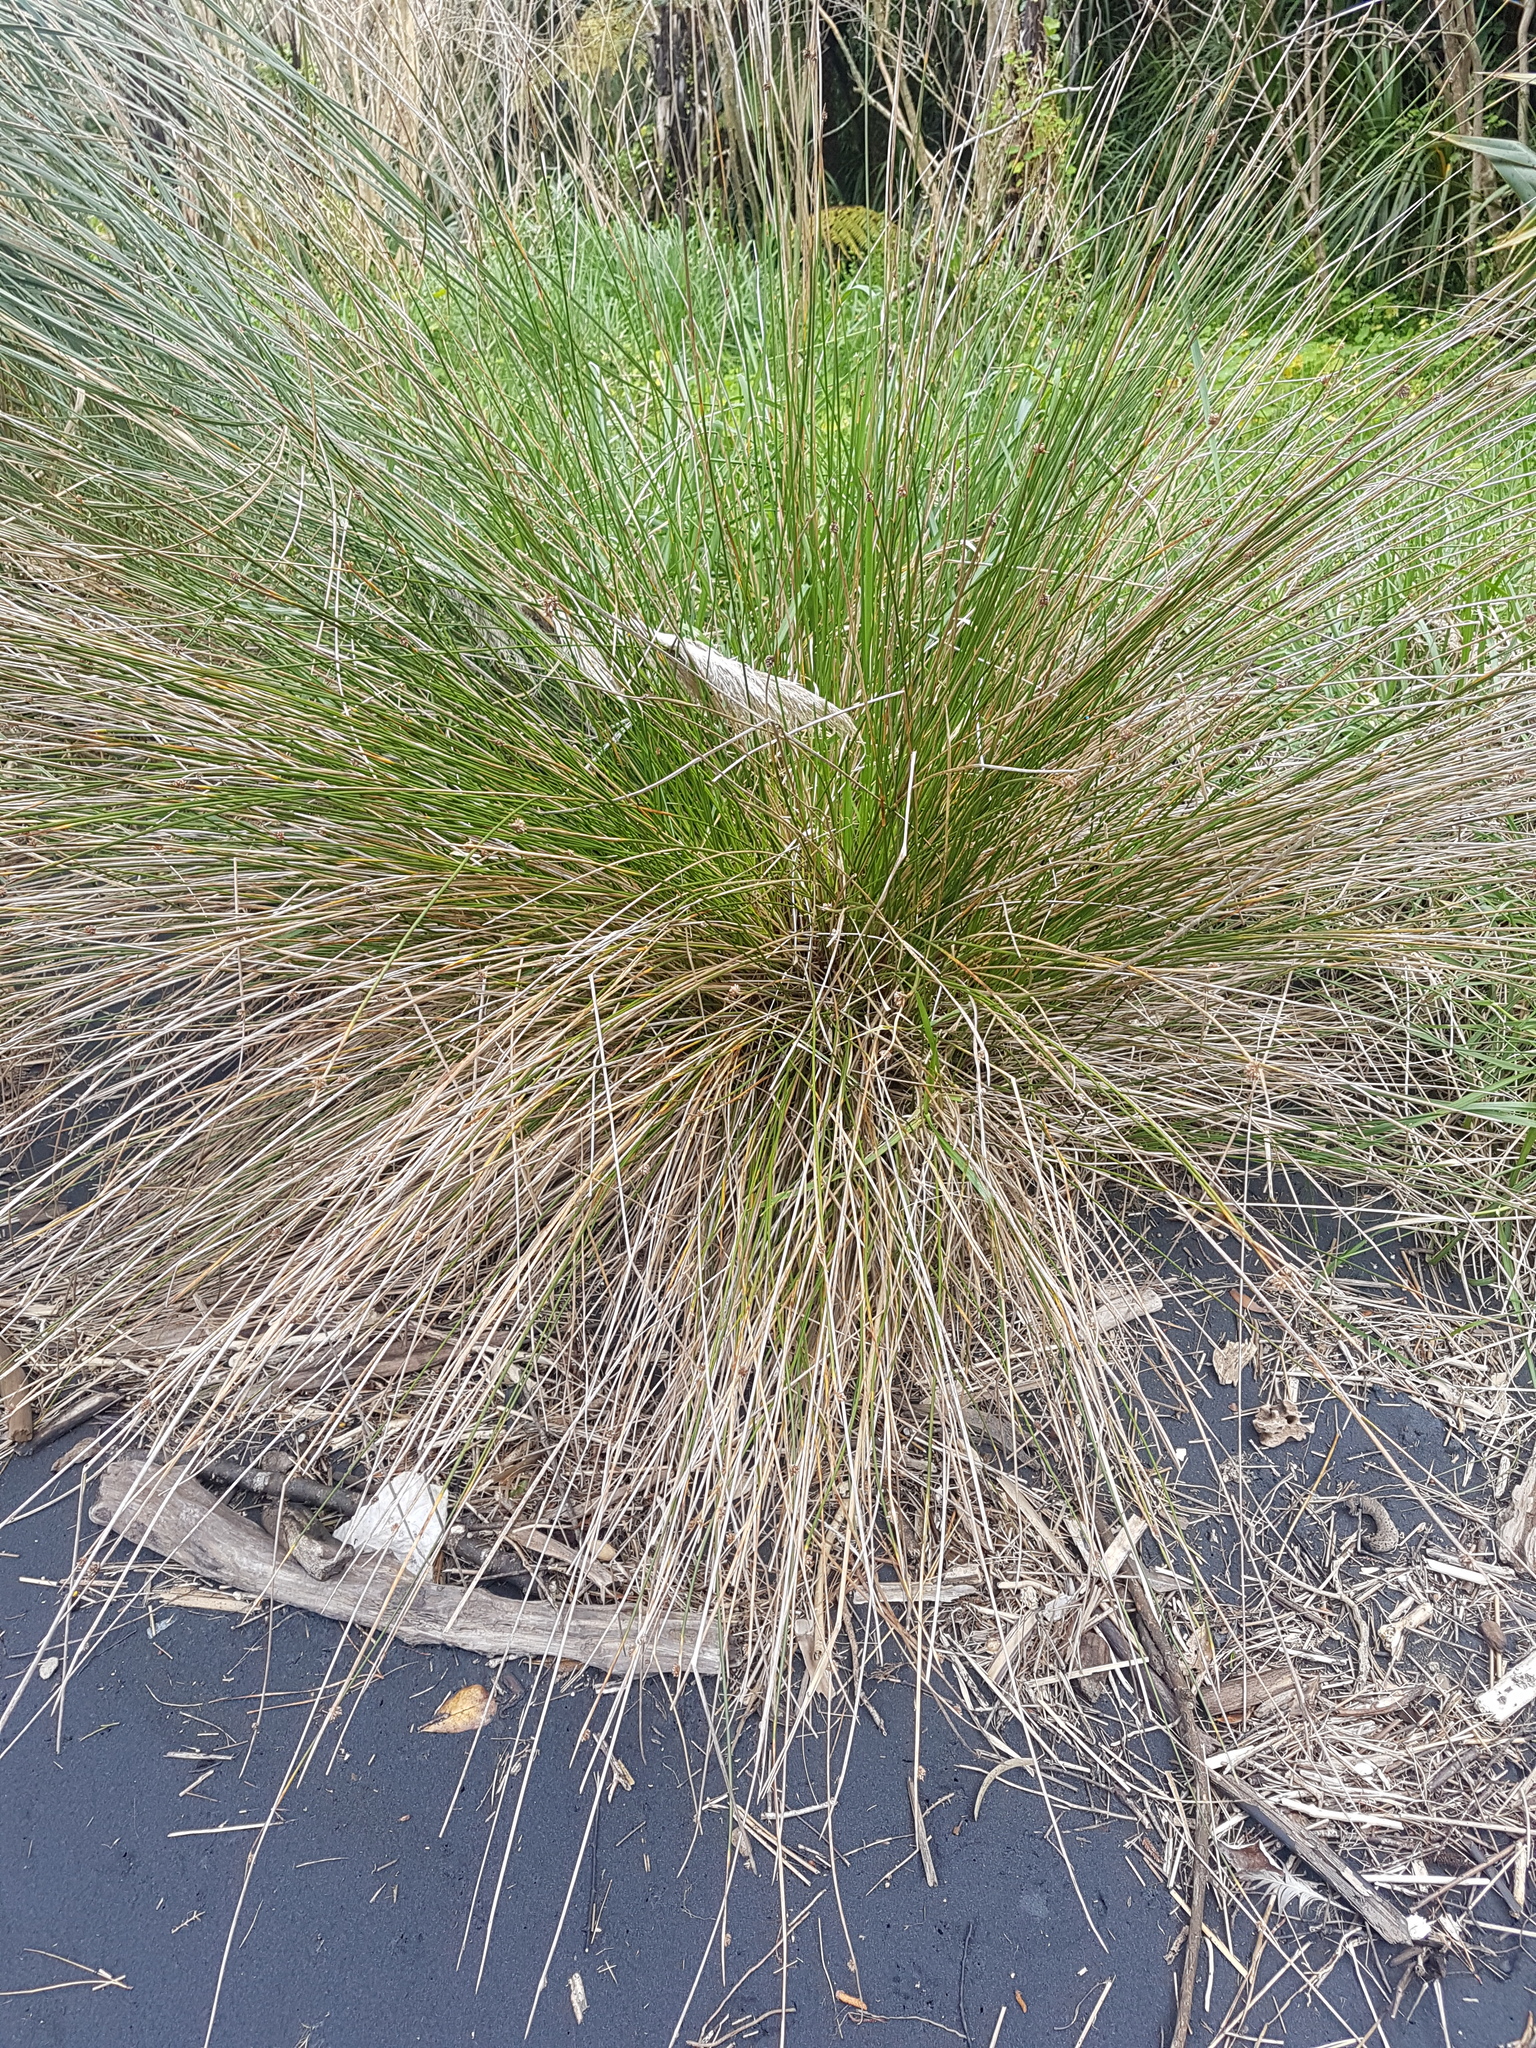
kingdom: Plantae
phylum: Tracheophyta
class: Liliopsida
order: Poales
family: Cyperaceae
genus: Ficinia
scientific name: Ficinia nodosa
